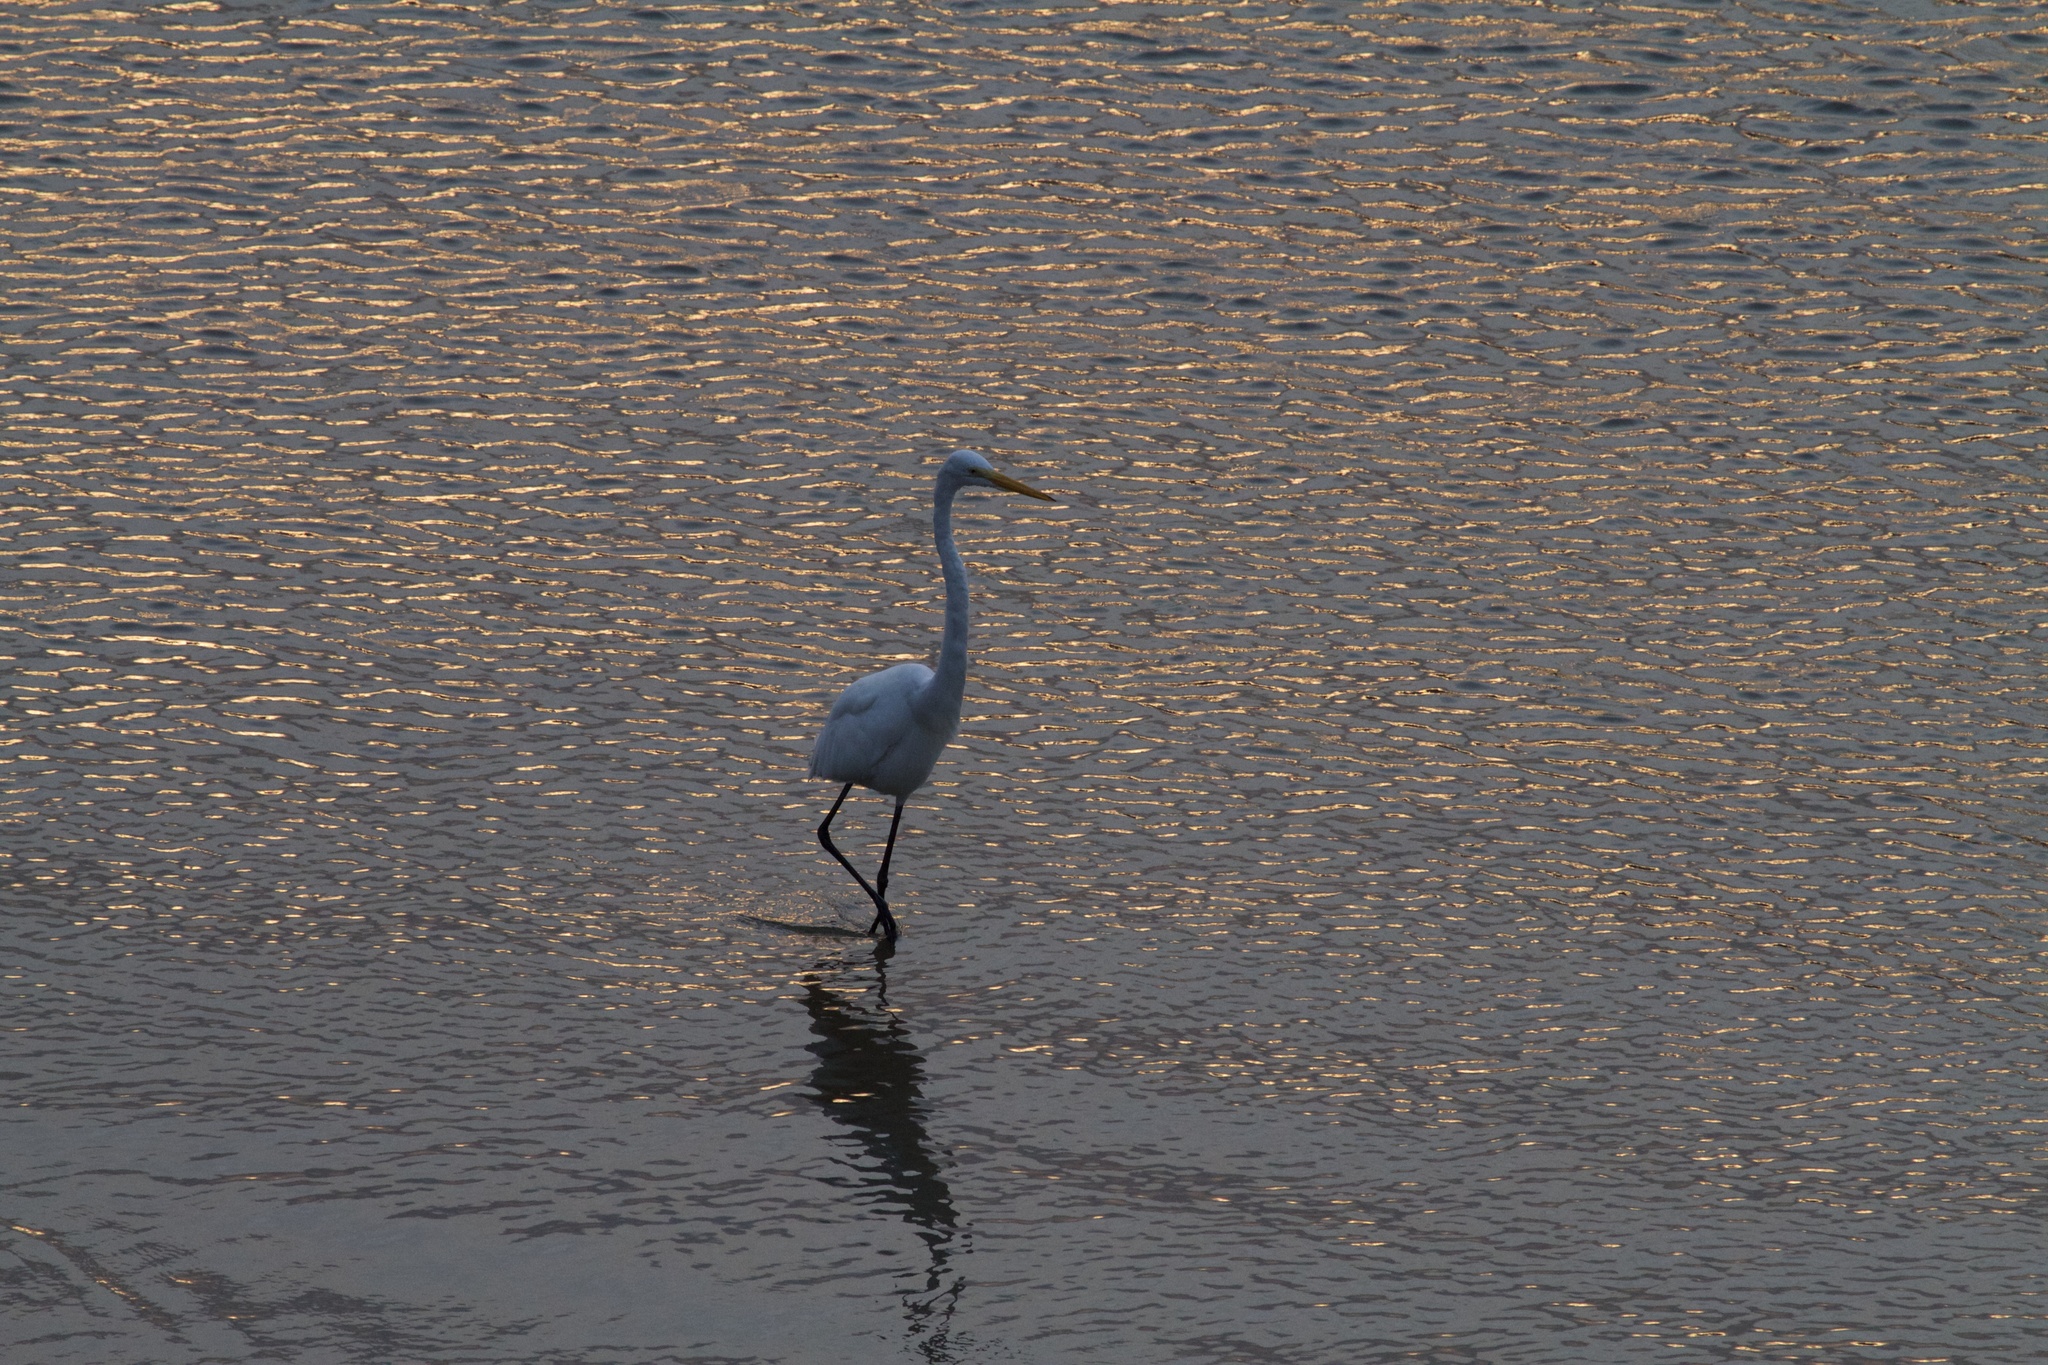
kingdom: Animalia
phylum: Chordata
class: Aves
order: Pelecaniformes
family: Ardeidae
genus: Ardea
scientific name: Ardea alba
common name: Great egret
